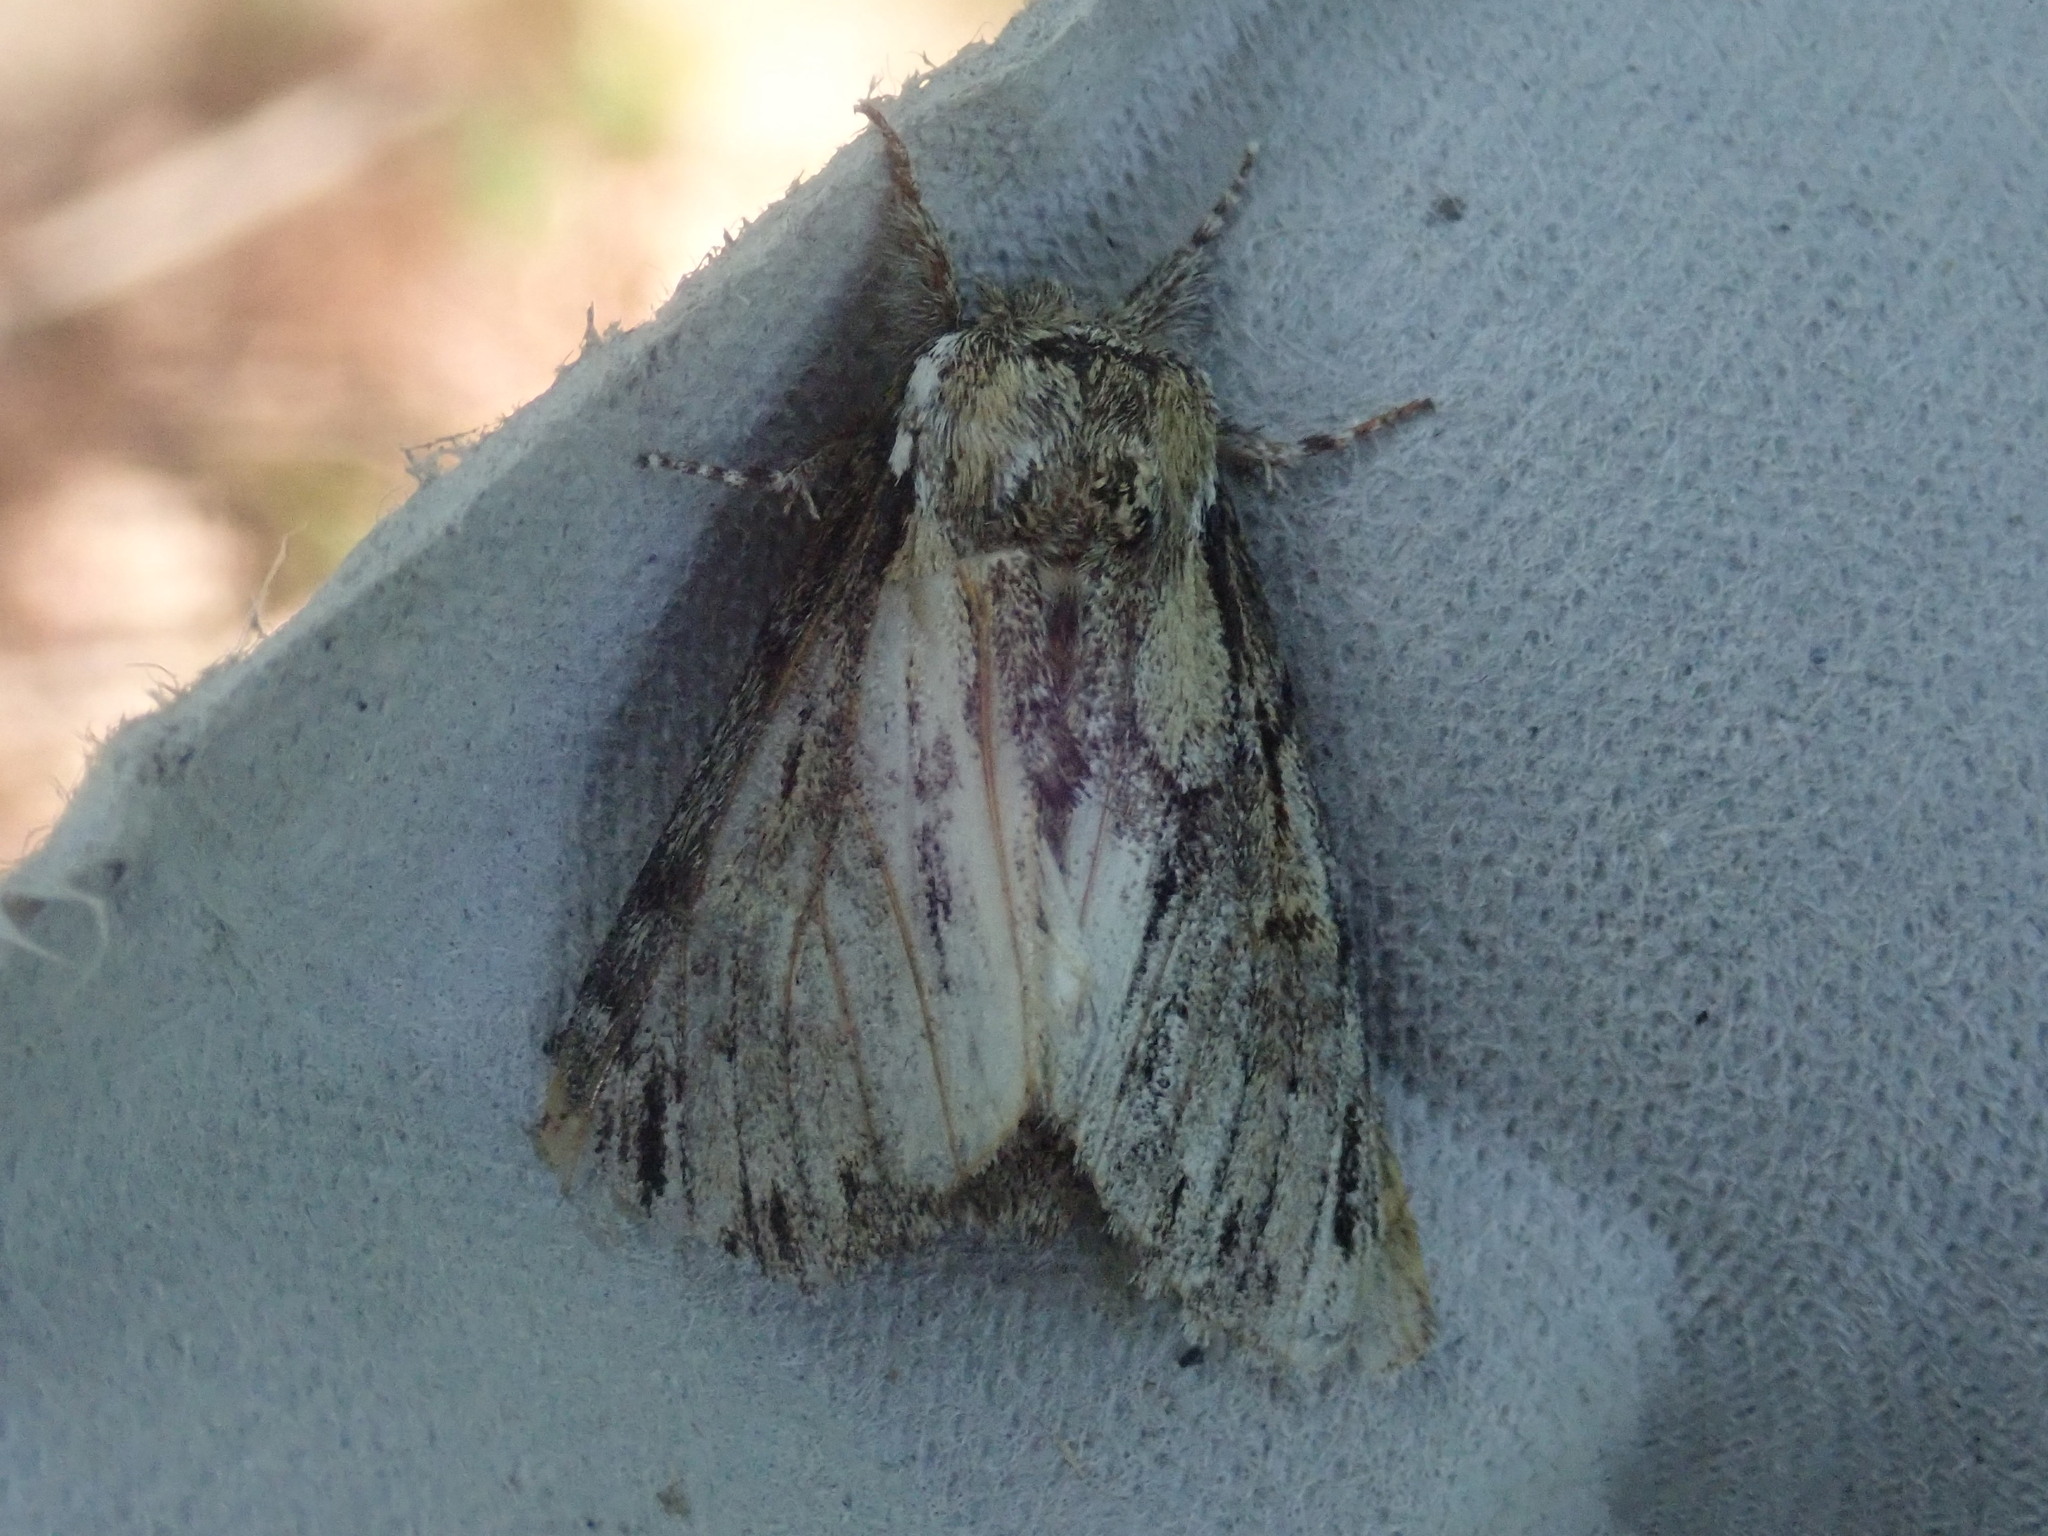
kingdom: Animalia
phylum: Arthropoda
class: Insecta
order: Lepidoptera
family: Notodontidae
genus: Paraeschra
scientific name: Paraeschra georgica
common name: Georgian prominent
